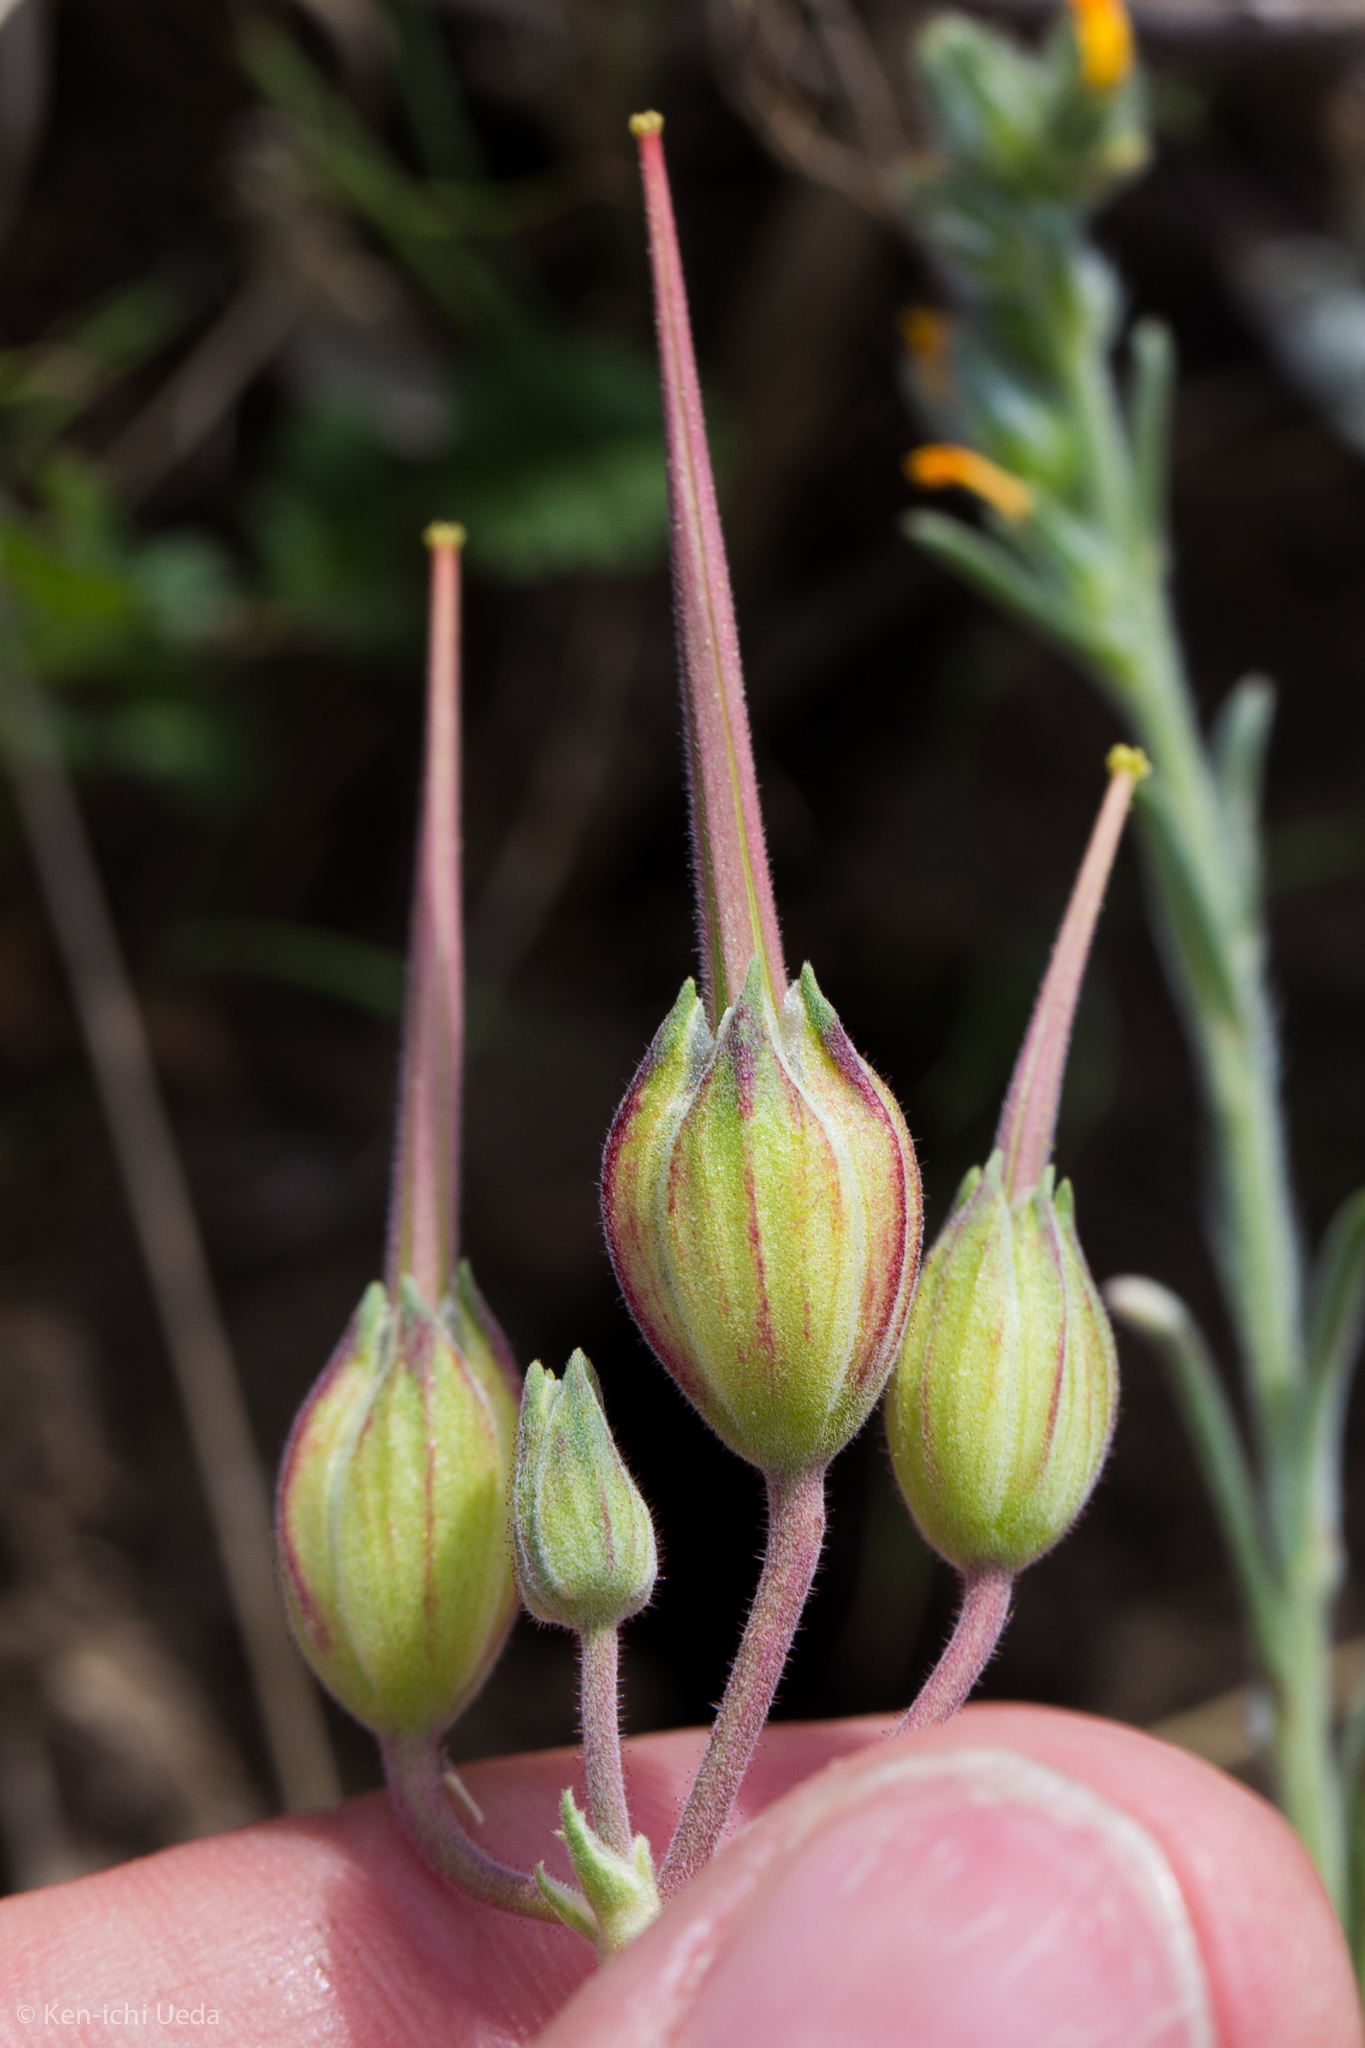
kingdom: Plantae
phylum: Tracheophyta
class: Magnoliopsida
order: Geraniales
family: Geraniaceae
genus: California
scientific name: California macrophylla
